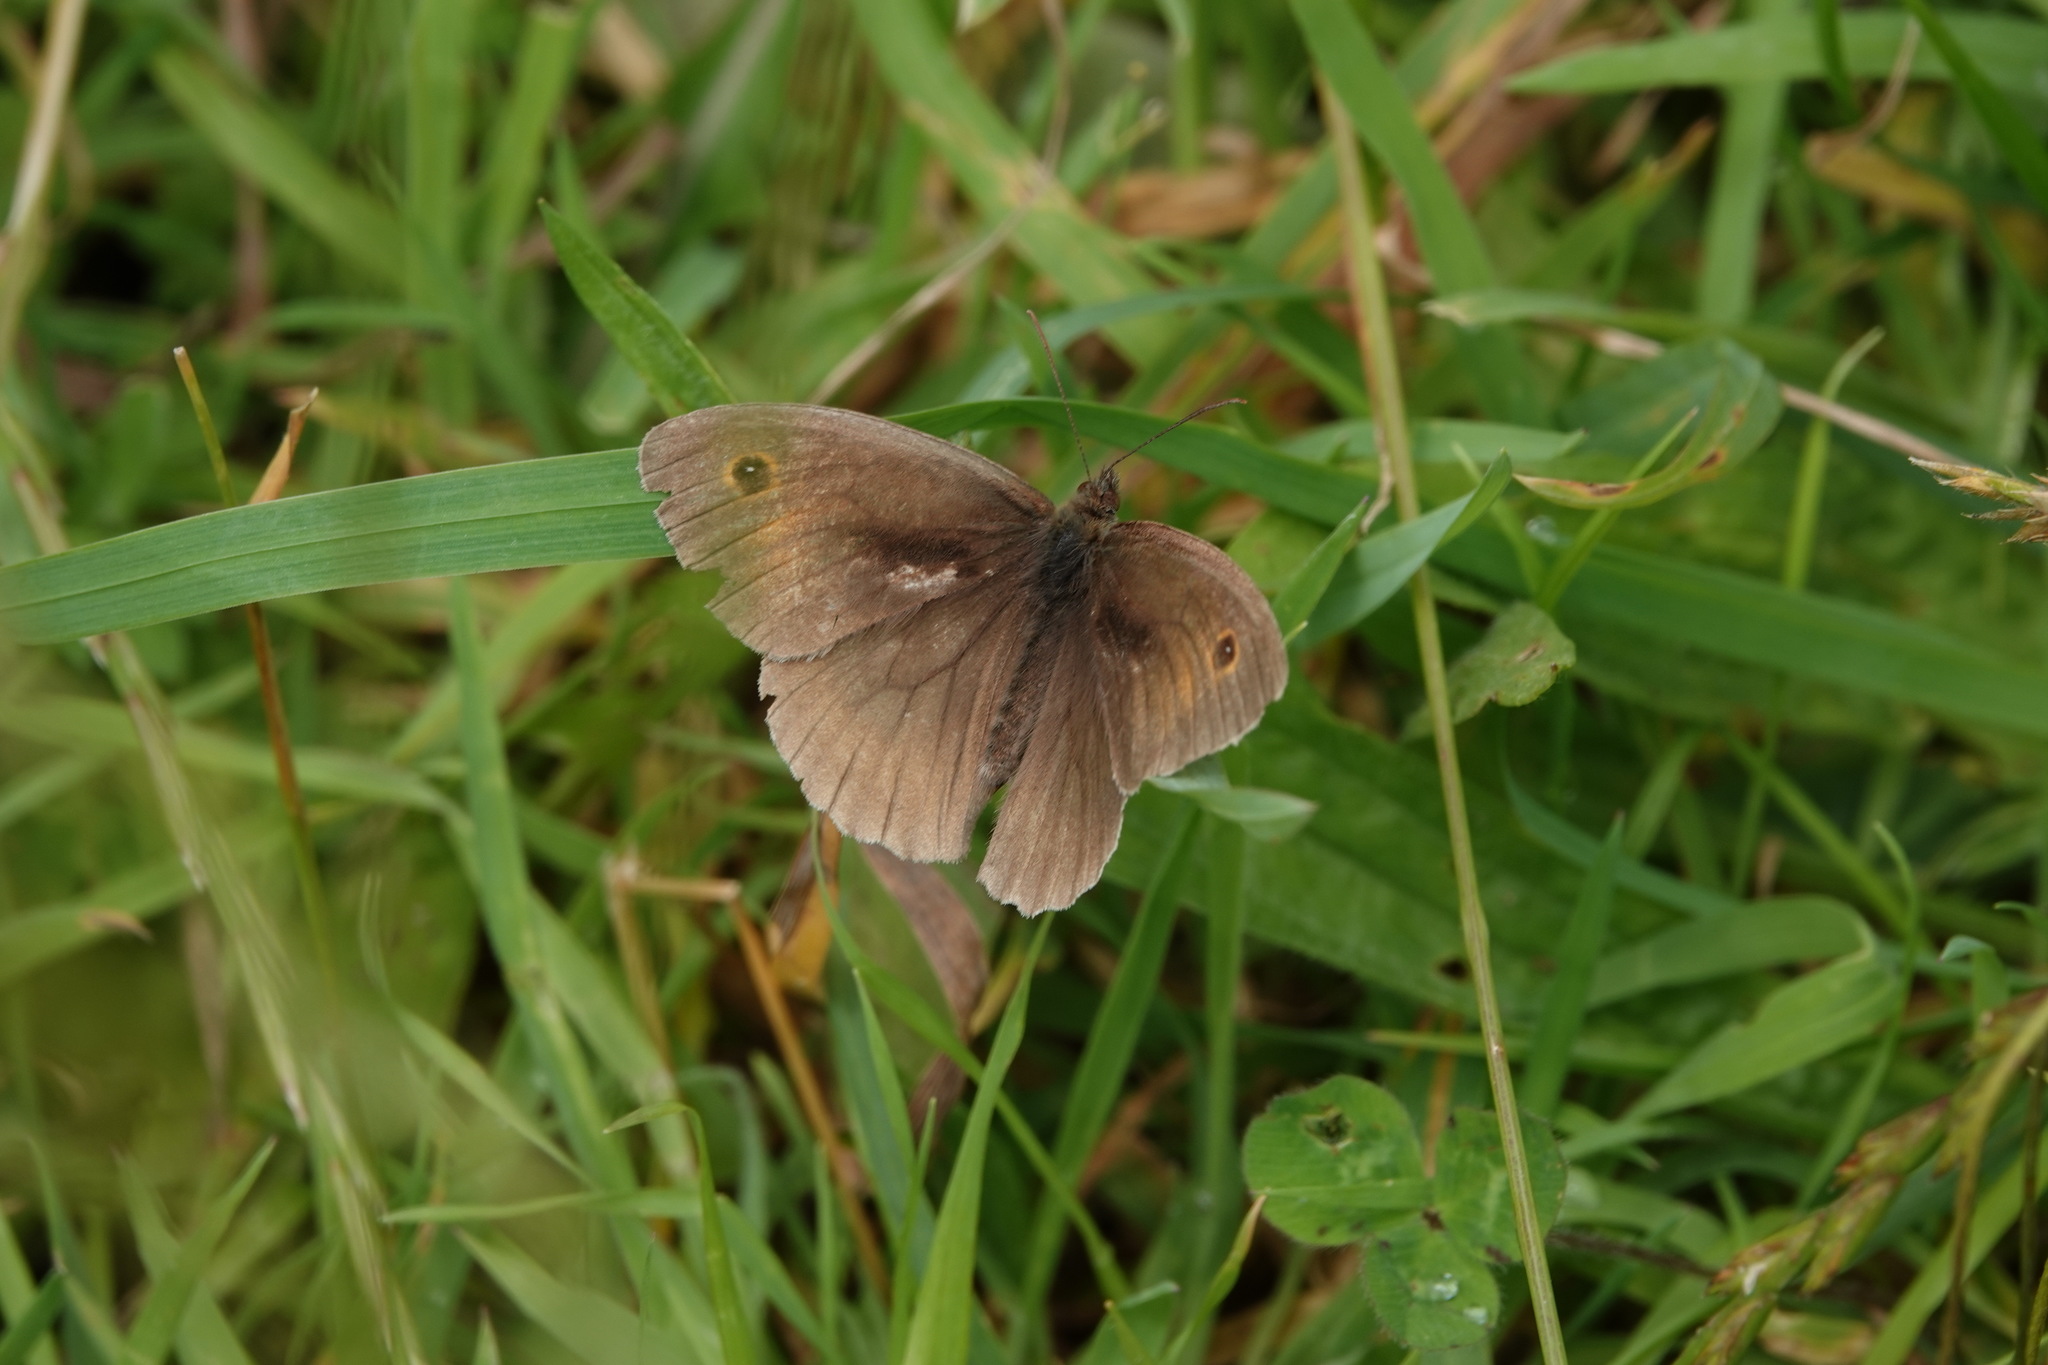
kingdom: Animalia
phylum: Arthropoda
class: Insecta
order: Lepidoptera
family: Nymphalidae
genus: Maniola
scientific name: Maniola jurtina
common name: Meadow brown
